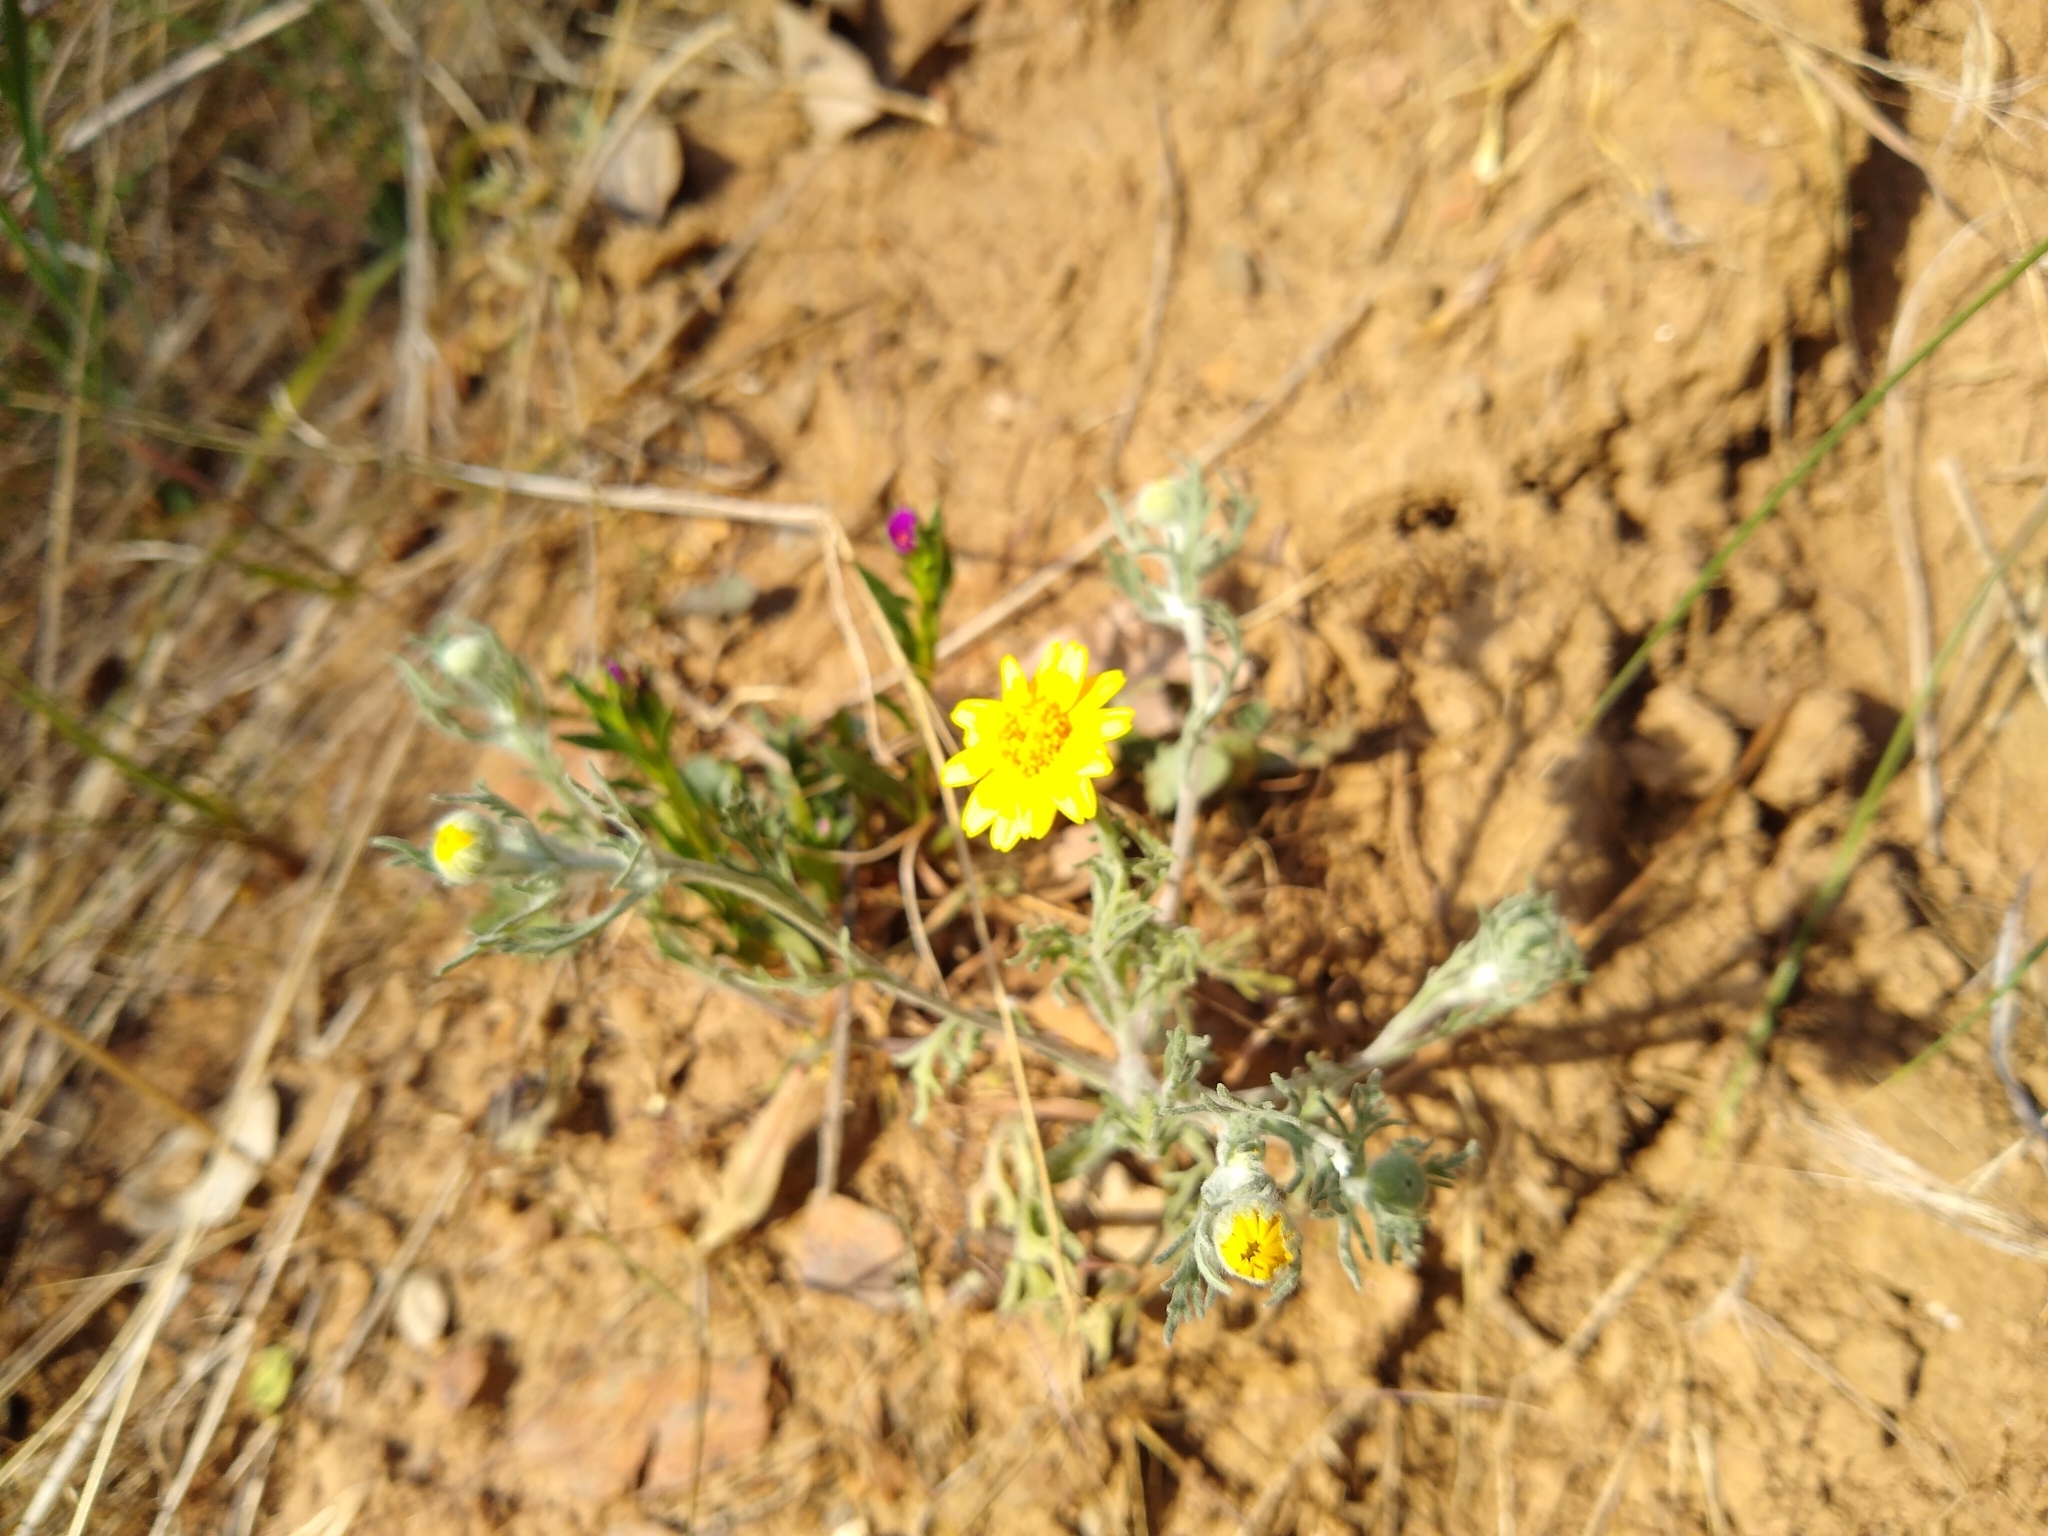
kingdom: Plantae
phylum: Tracheophyta
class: Magnoliopsida
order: Asterales
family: Asteraceae
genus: Pseudobahia
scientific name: Pseudobahia heermannii
